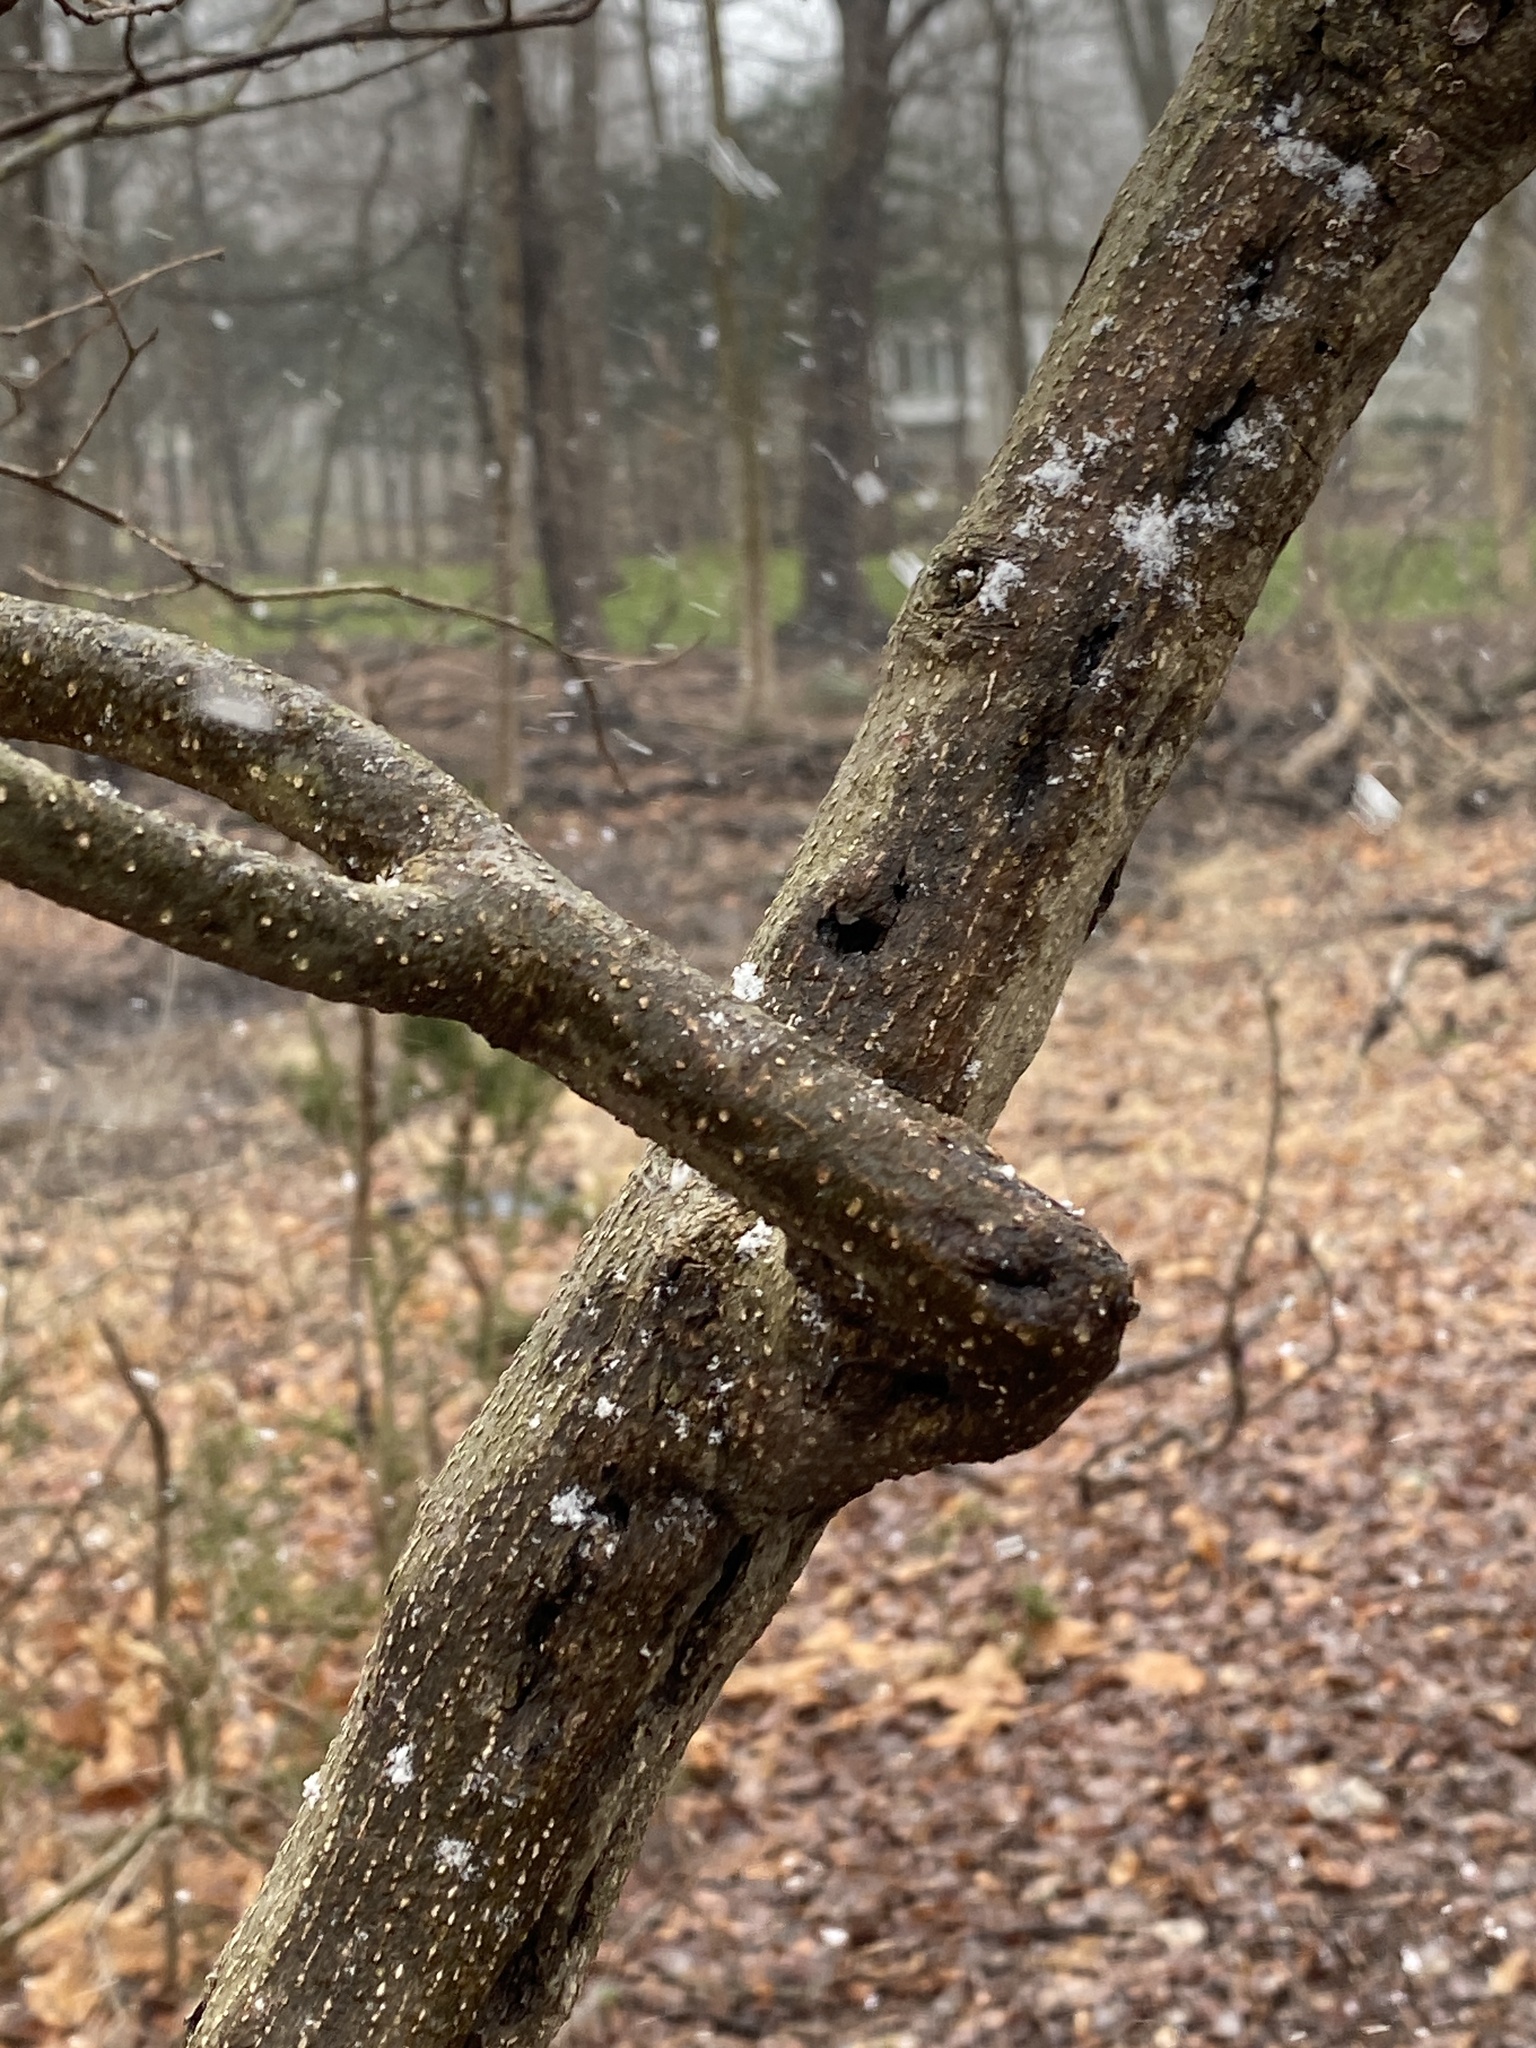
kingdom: Plantae
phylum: Tracheophyta
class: Magnoliopsida
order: Laurales
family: Lauraceae
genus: Lindera
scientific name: Lindera benzoin
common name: Spicebush
